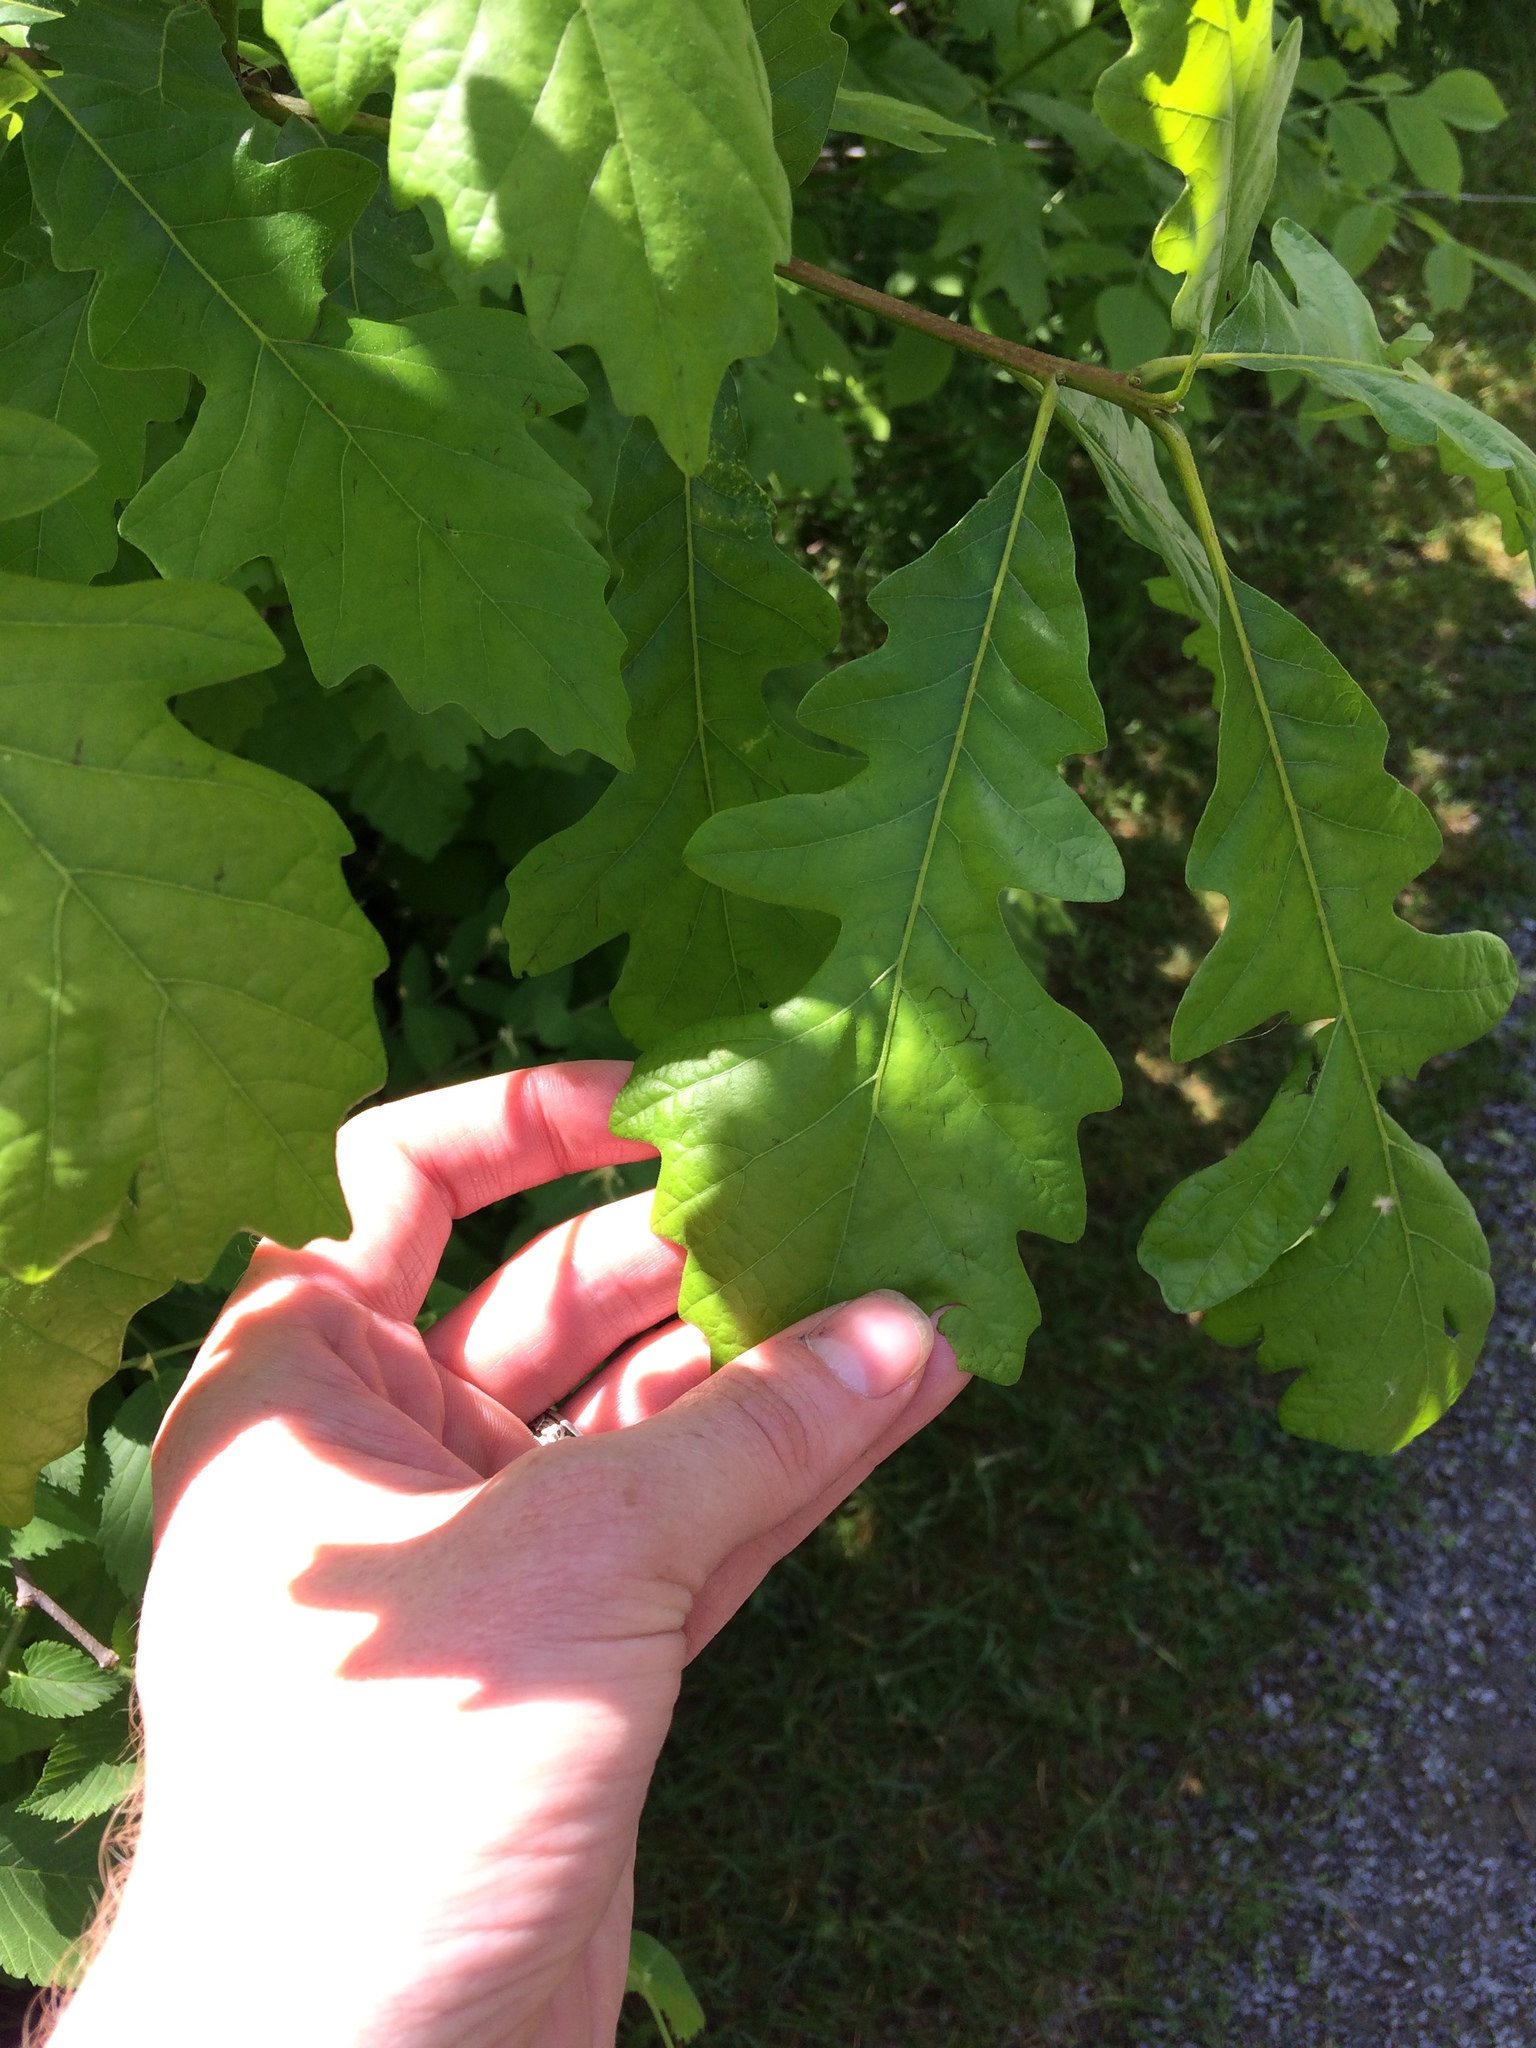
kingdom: Plantae
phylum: Tracheophyta
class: Magnoliopsida
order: Fagales
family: Fagaceae
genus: Quercus
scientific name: Quercus macrocarpa
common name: Bur oak
